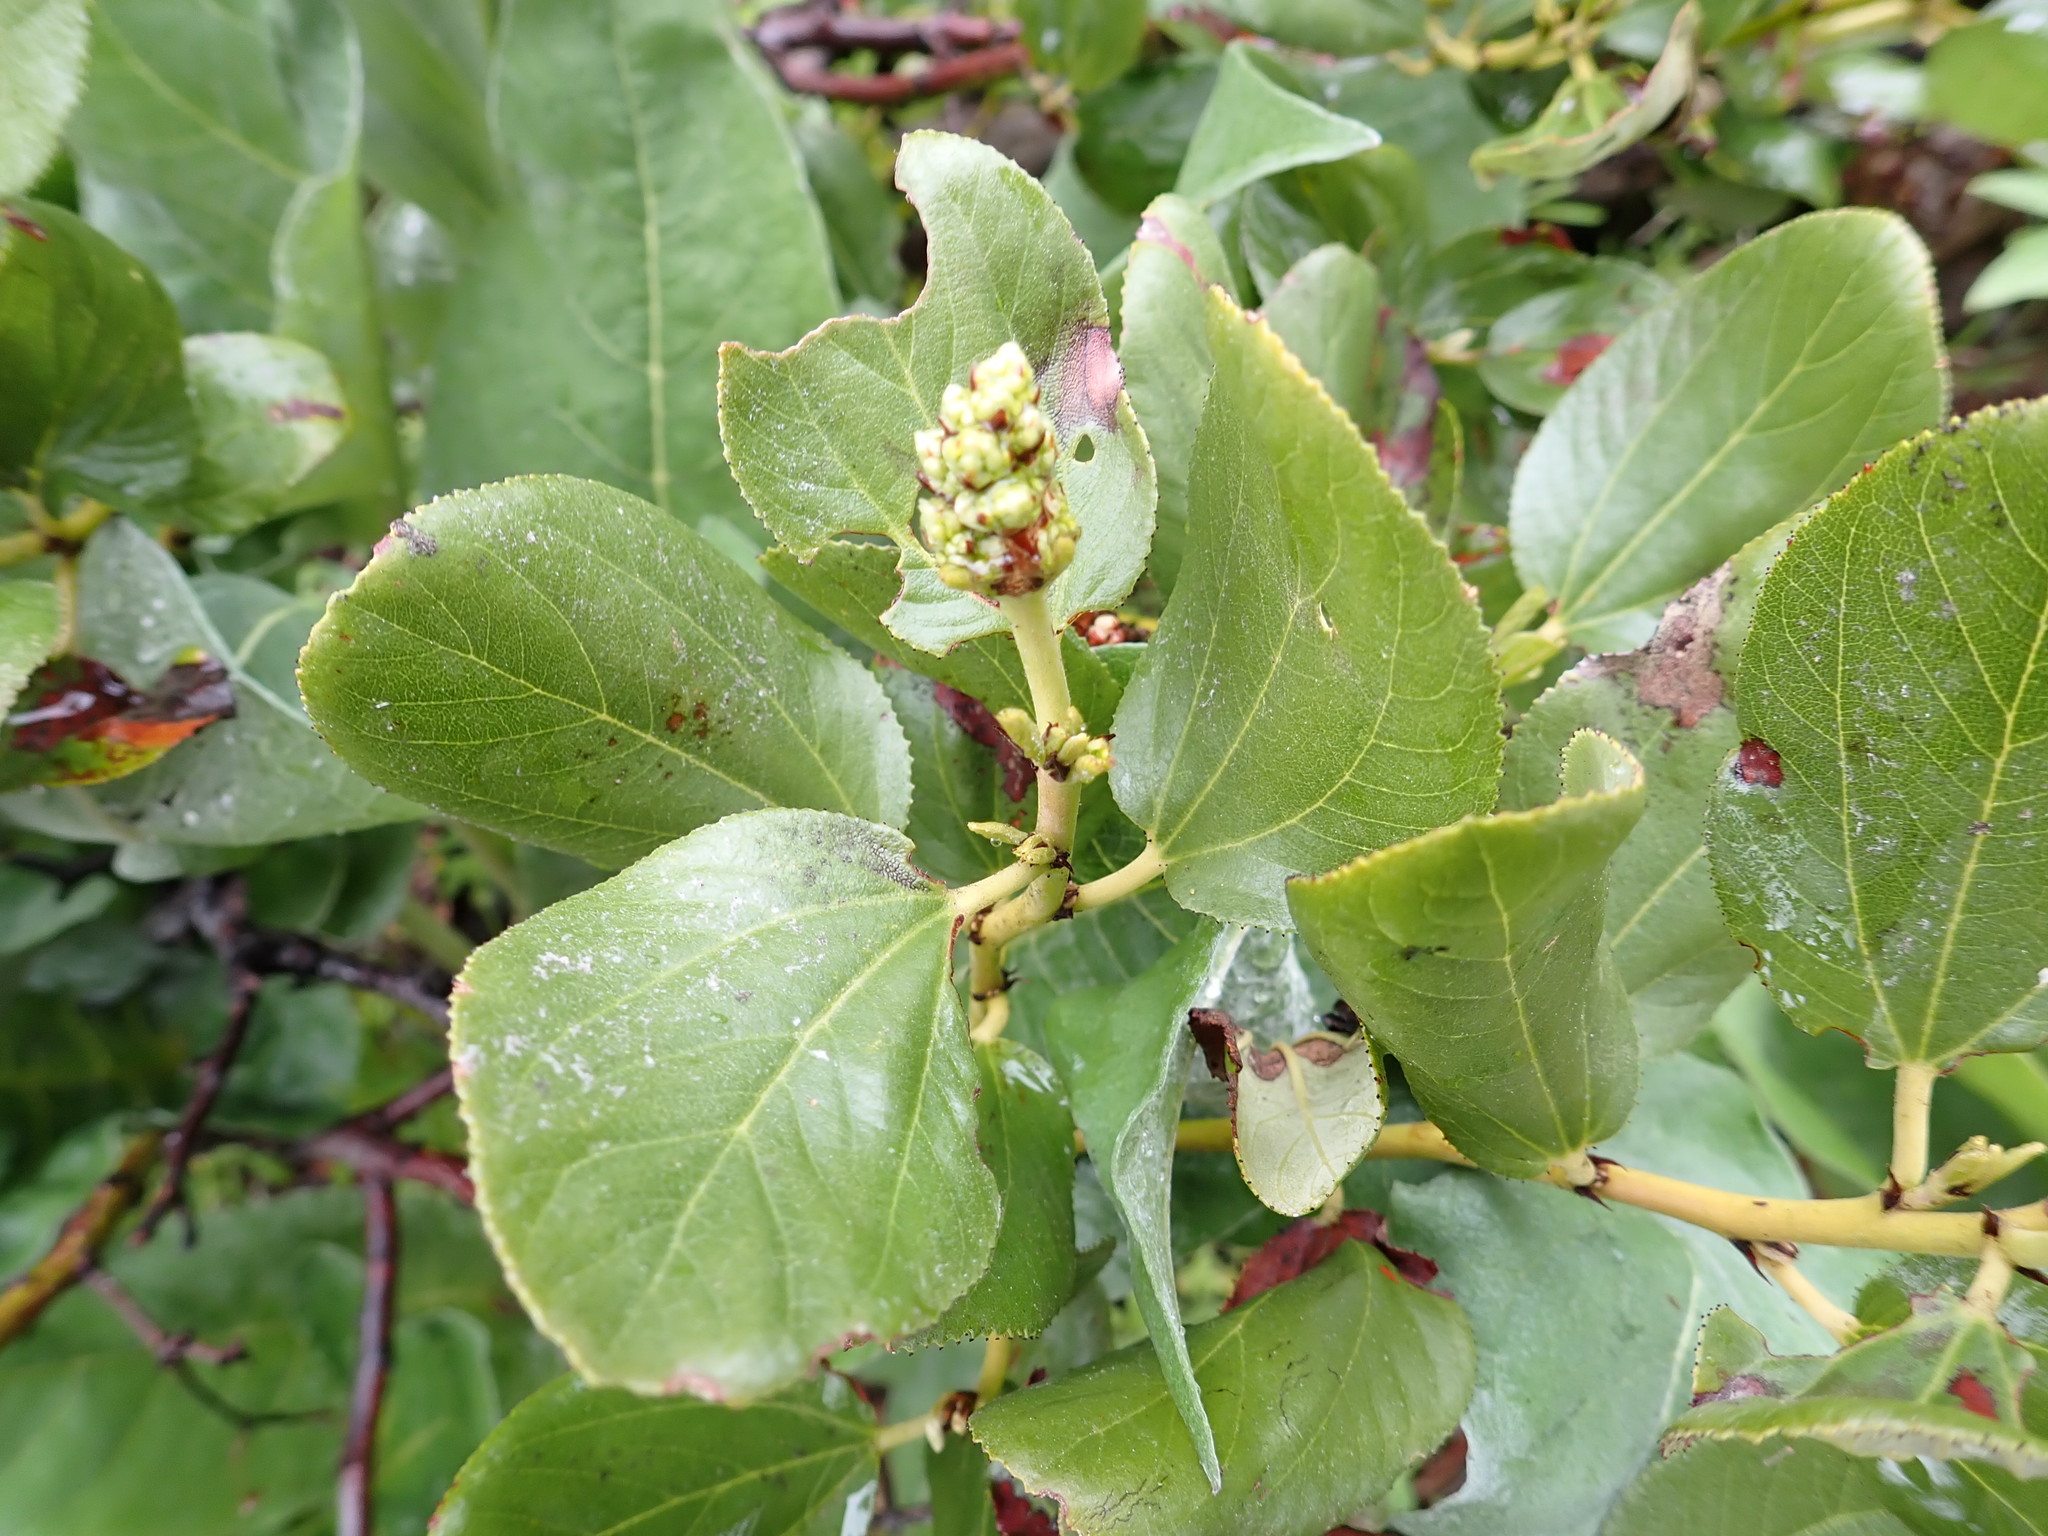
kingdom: Plantae
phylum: Tracheophyta
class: Magnoliopsida
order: Rosales
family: Rhamnaceae
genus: Ceanothus
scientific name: Ceanothus velutinus
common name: Snowbrush
